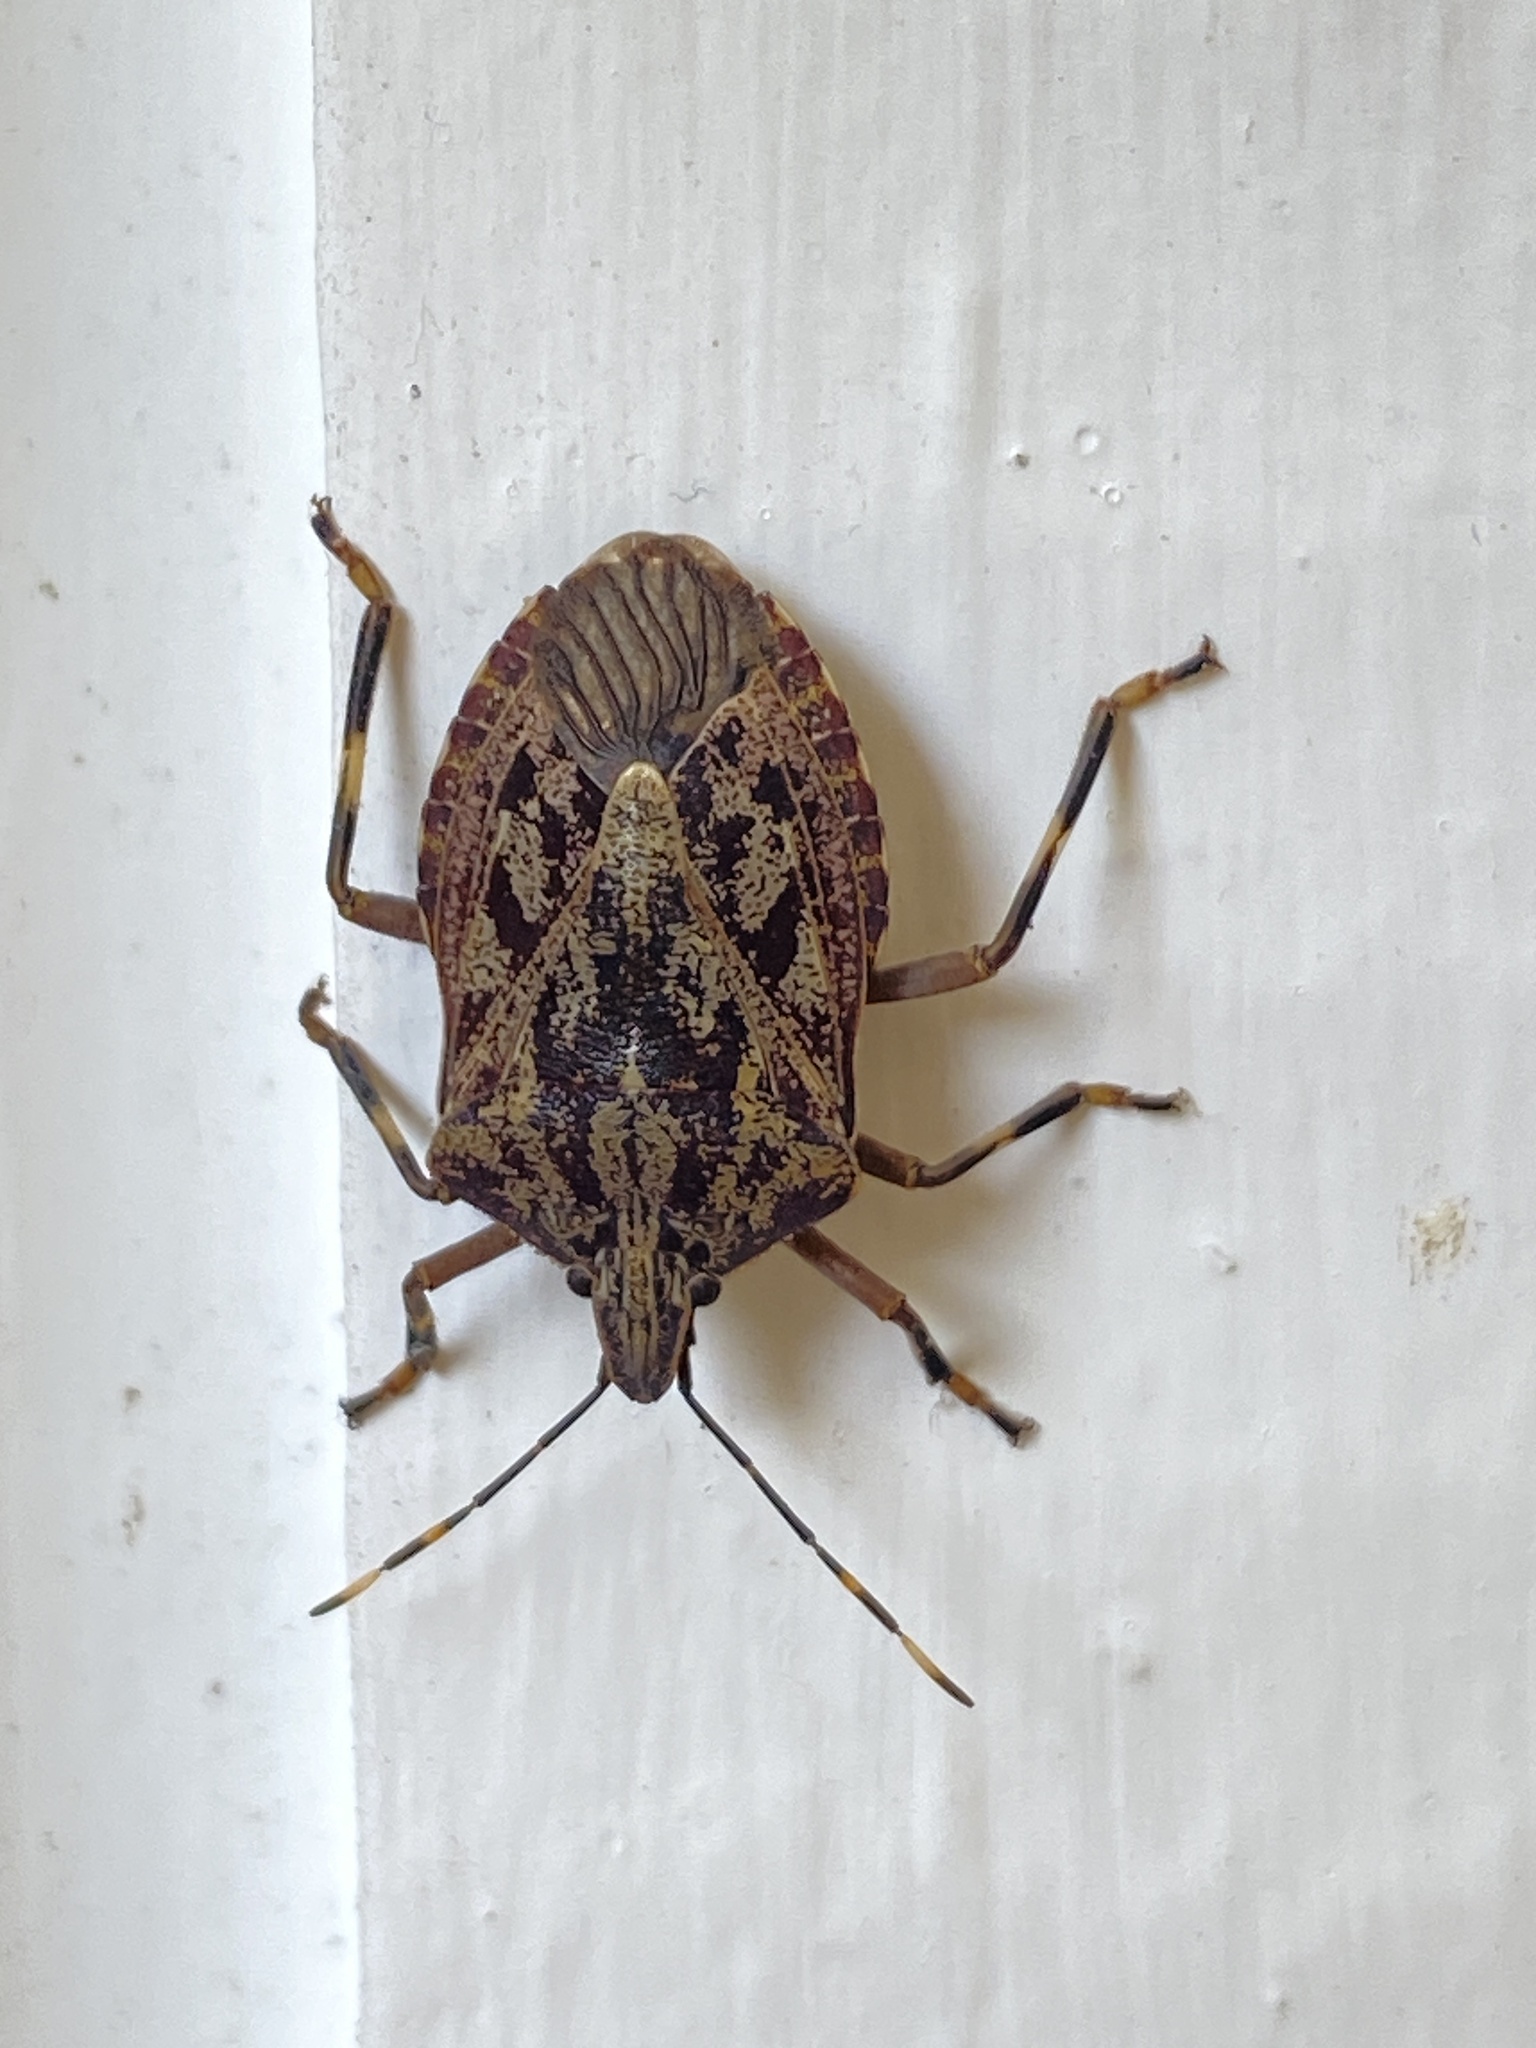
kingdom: Animalia
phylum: Arthropoda
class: Insecta
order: Hemiptera
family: Pentatomidae
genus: Coenomorpha
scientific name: Coenomorpha nervosa
